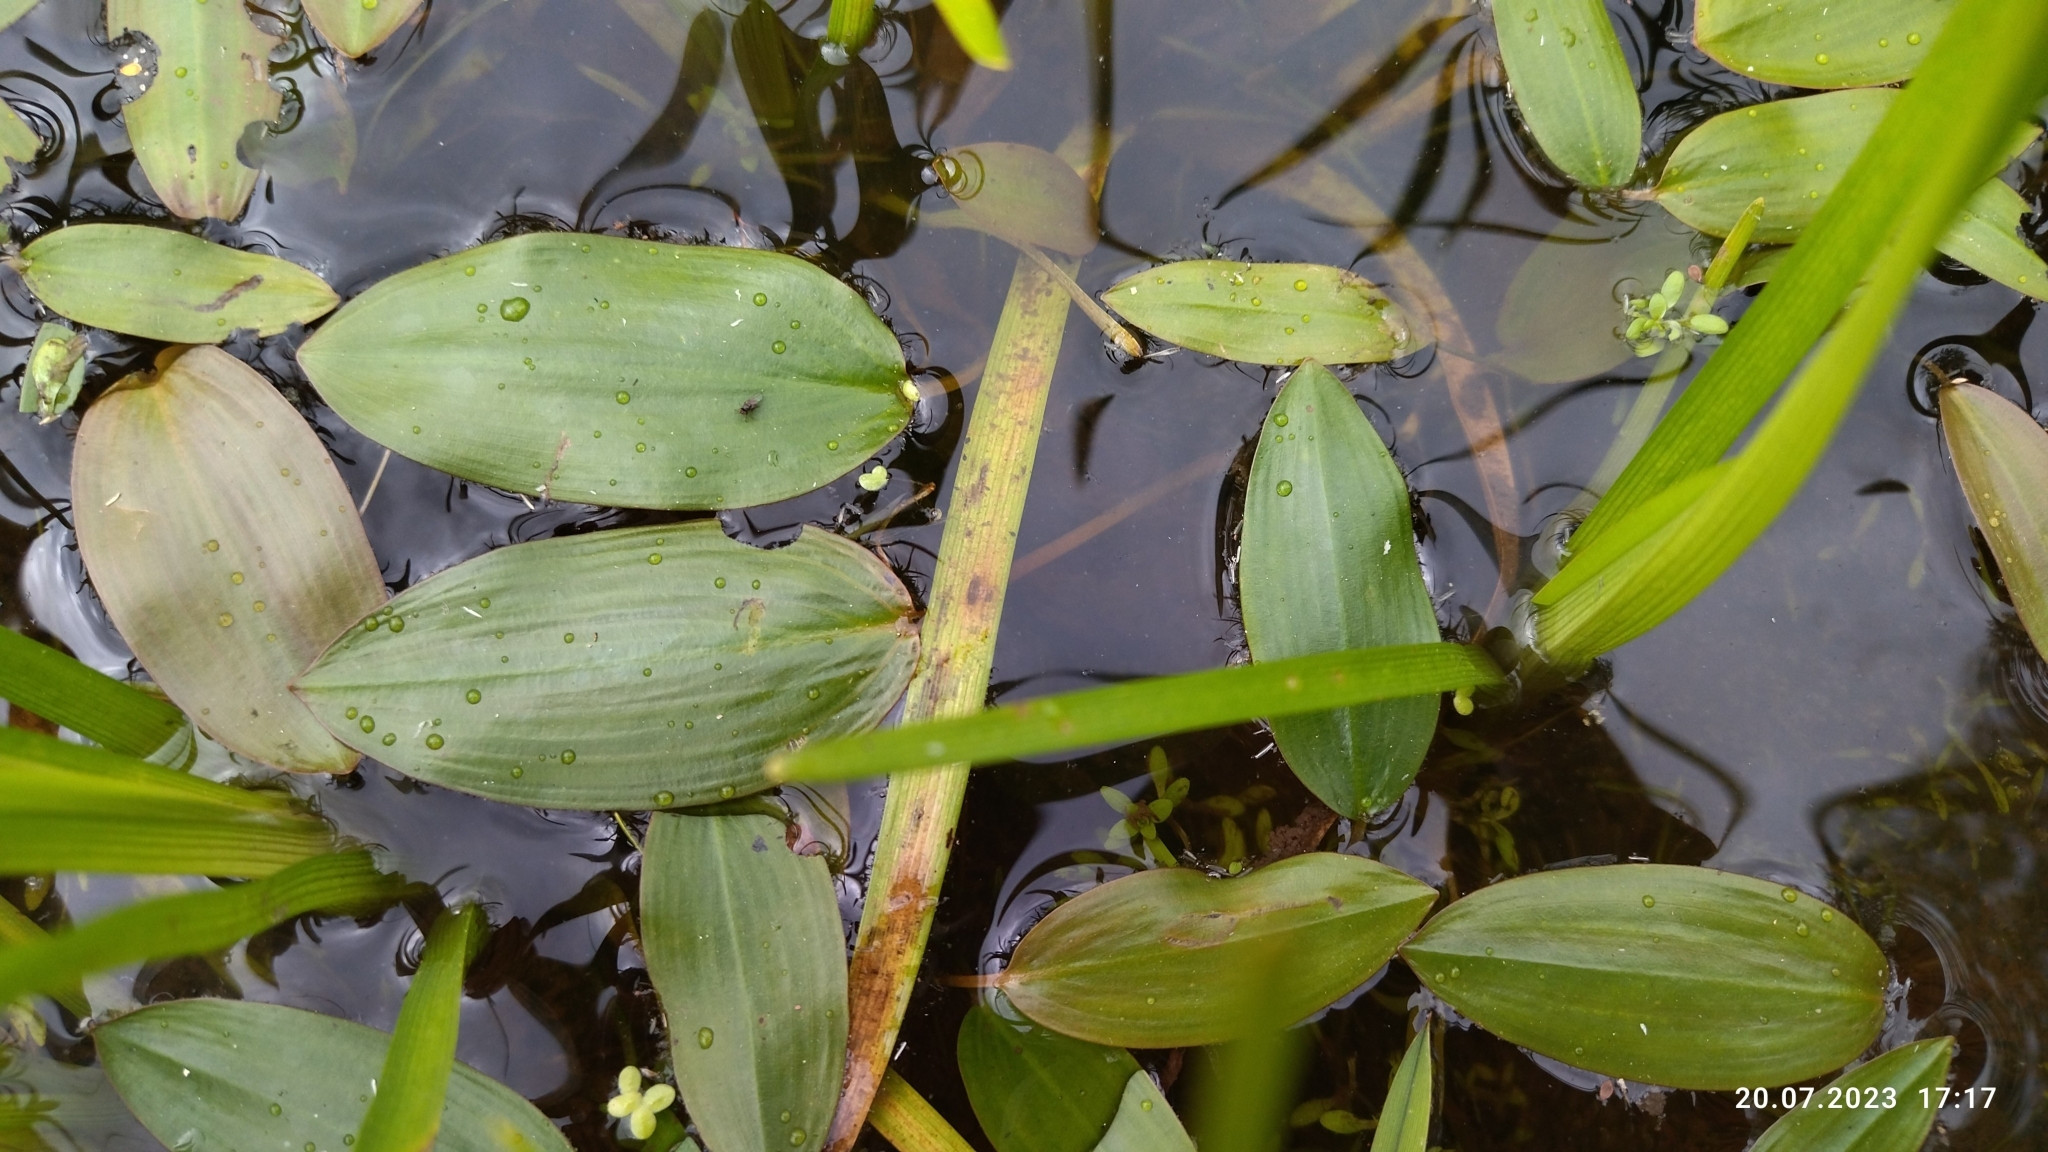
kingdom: Plantae
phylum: Tracheophyta
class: Liliopsida
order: Alismatales
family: Potamogetonaceae
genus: Potamogeton
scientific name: Potamogeton natans
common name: Broad-leaved pondweed
